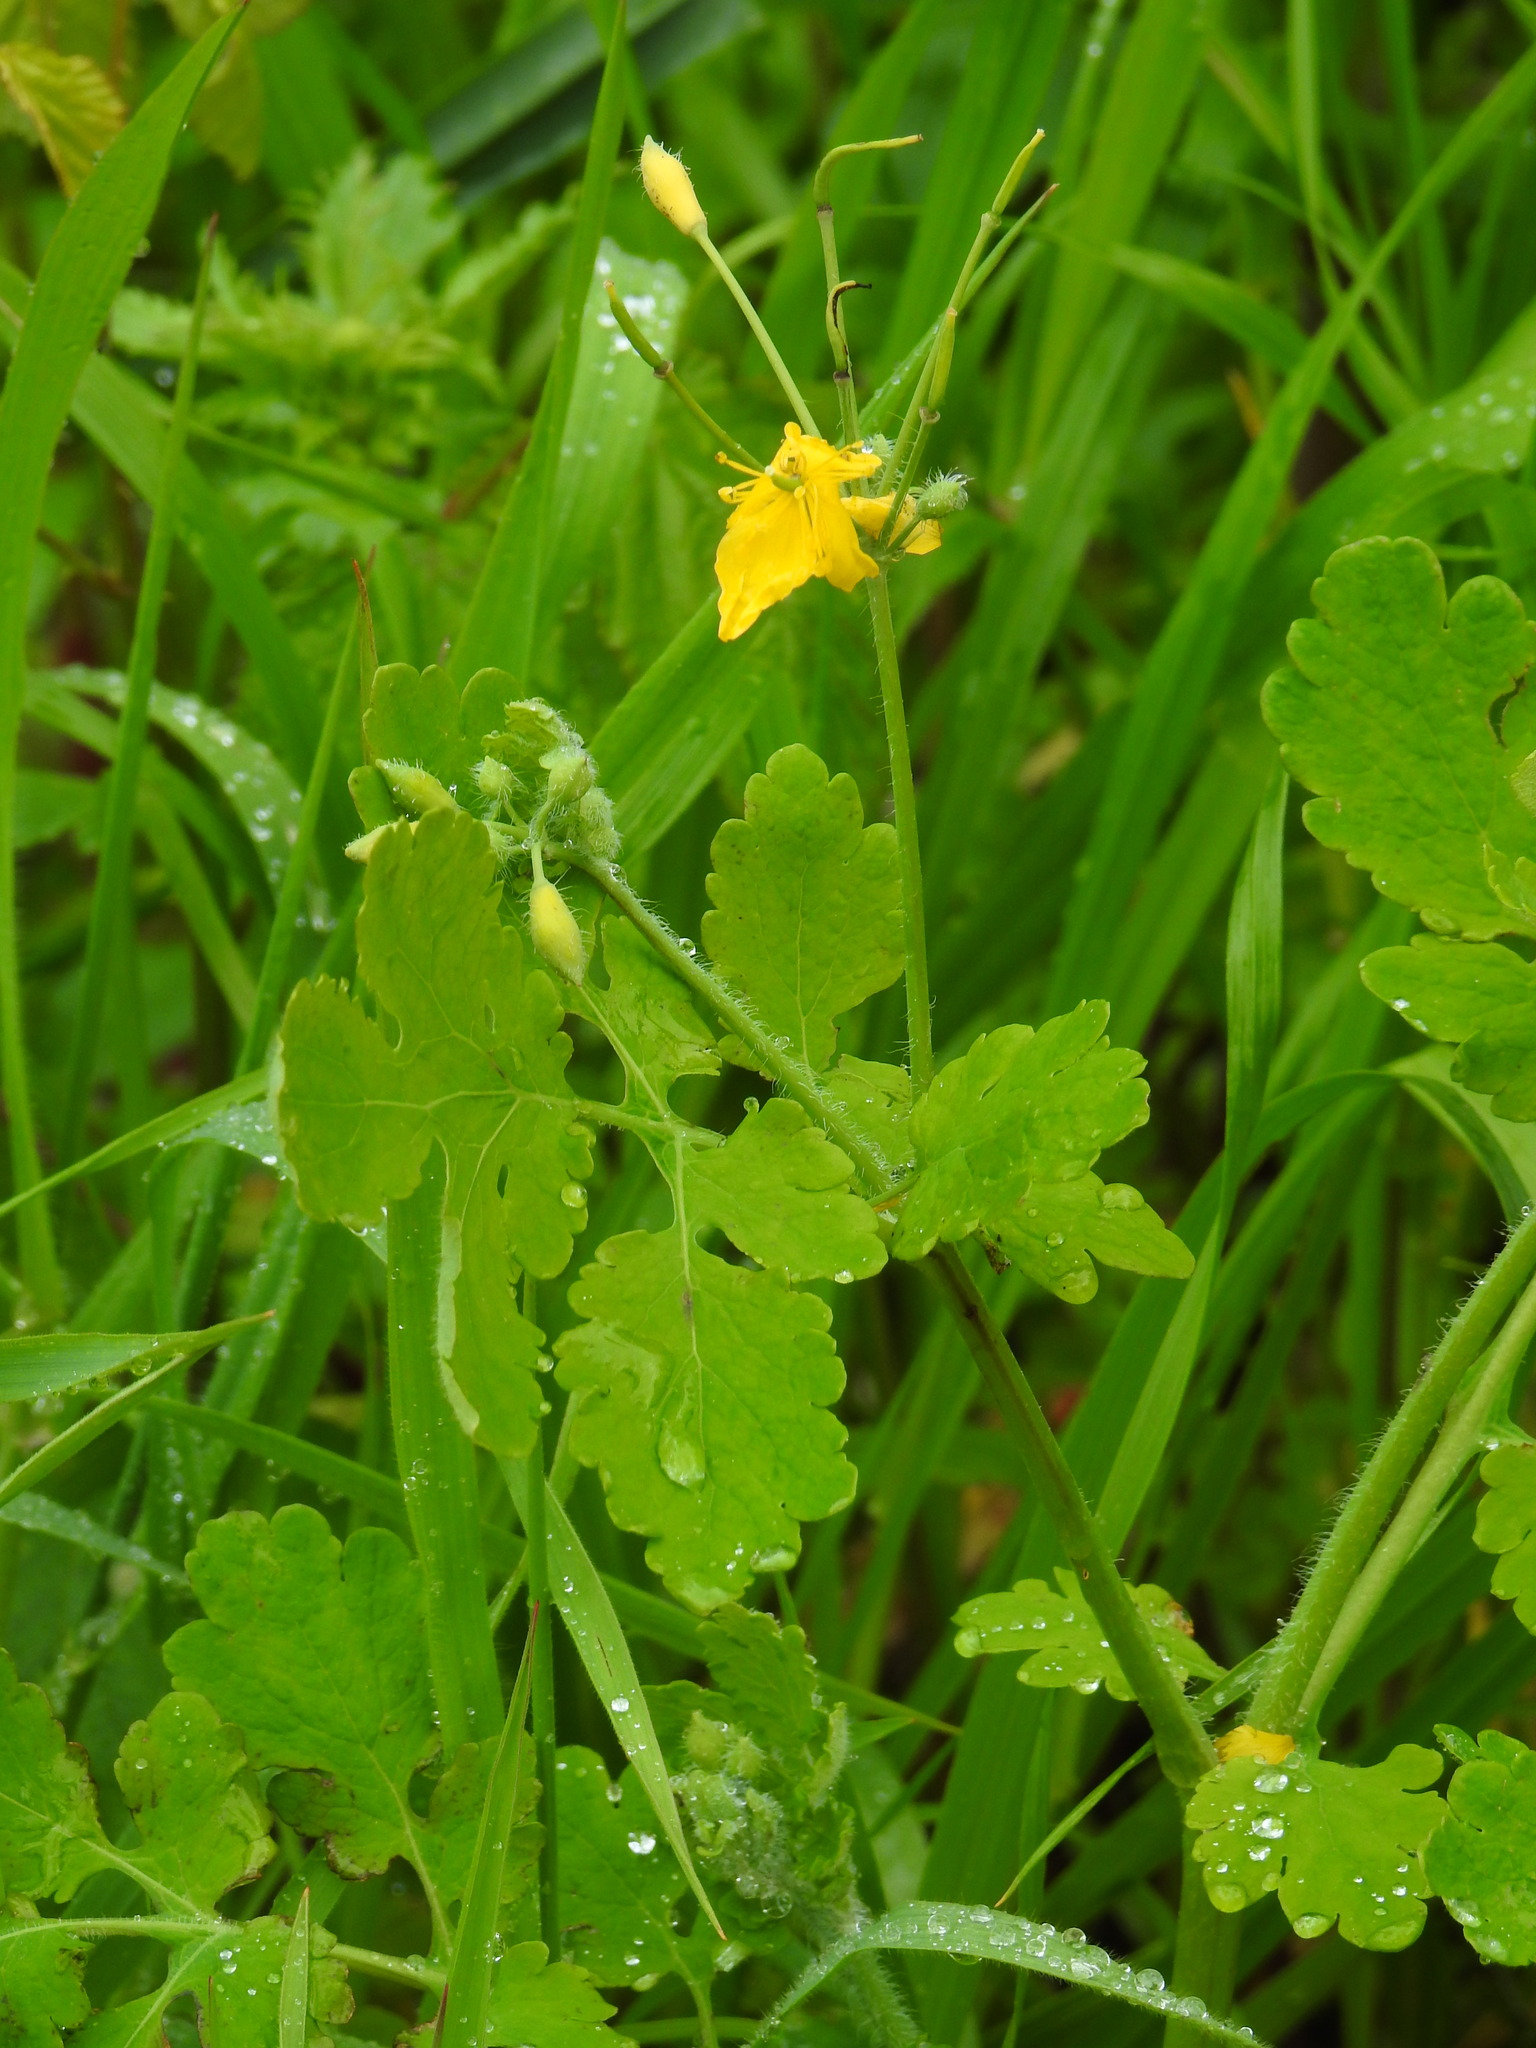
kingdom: Plantae
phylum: Tracheophyta
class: Magnoliopsida
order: Ranunculales
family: Papaveraceae
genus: Chelidonium
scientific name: Chelidonium majus
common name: Greater celandine
